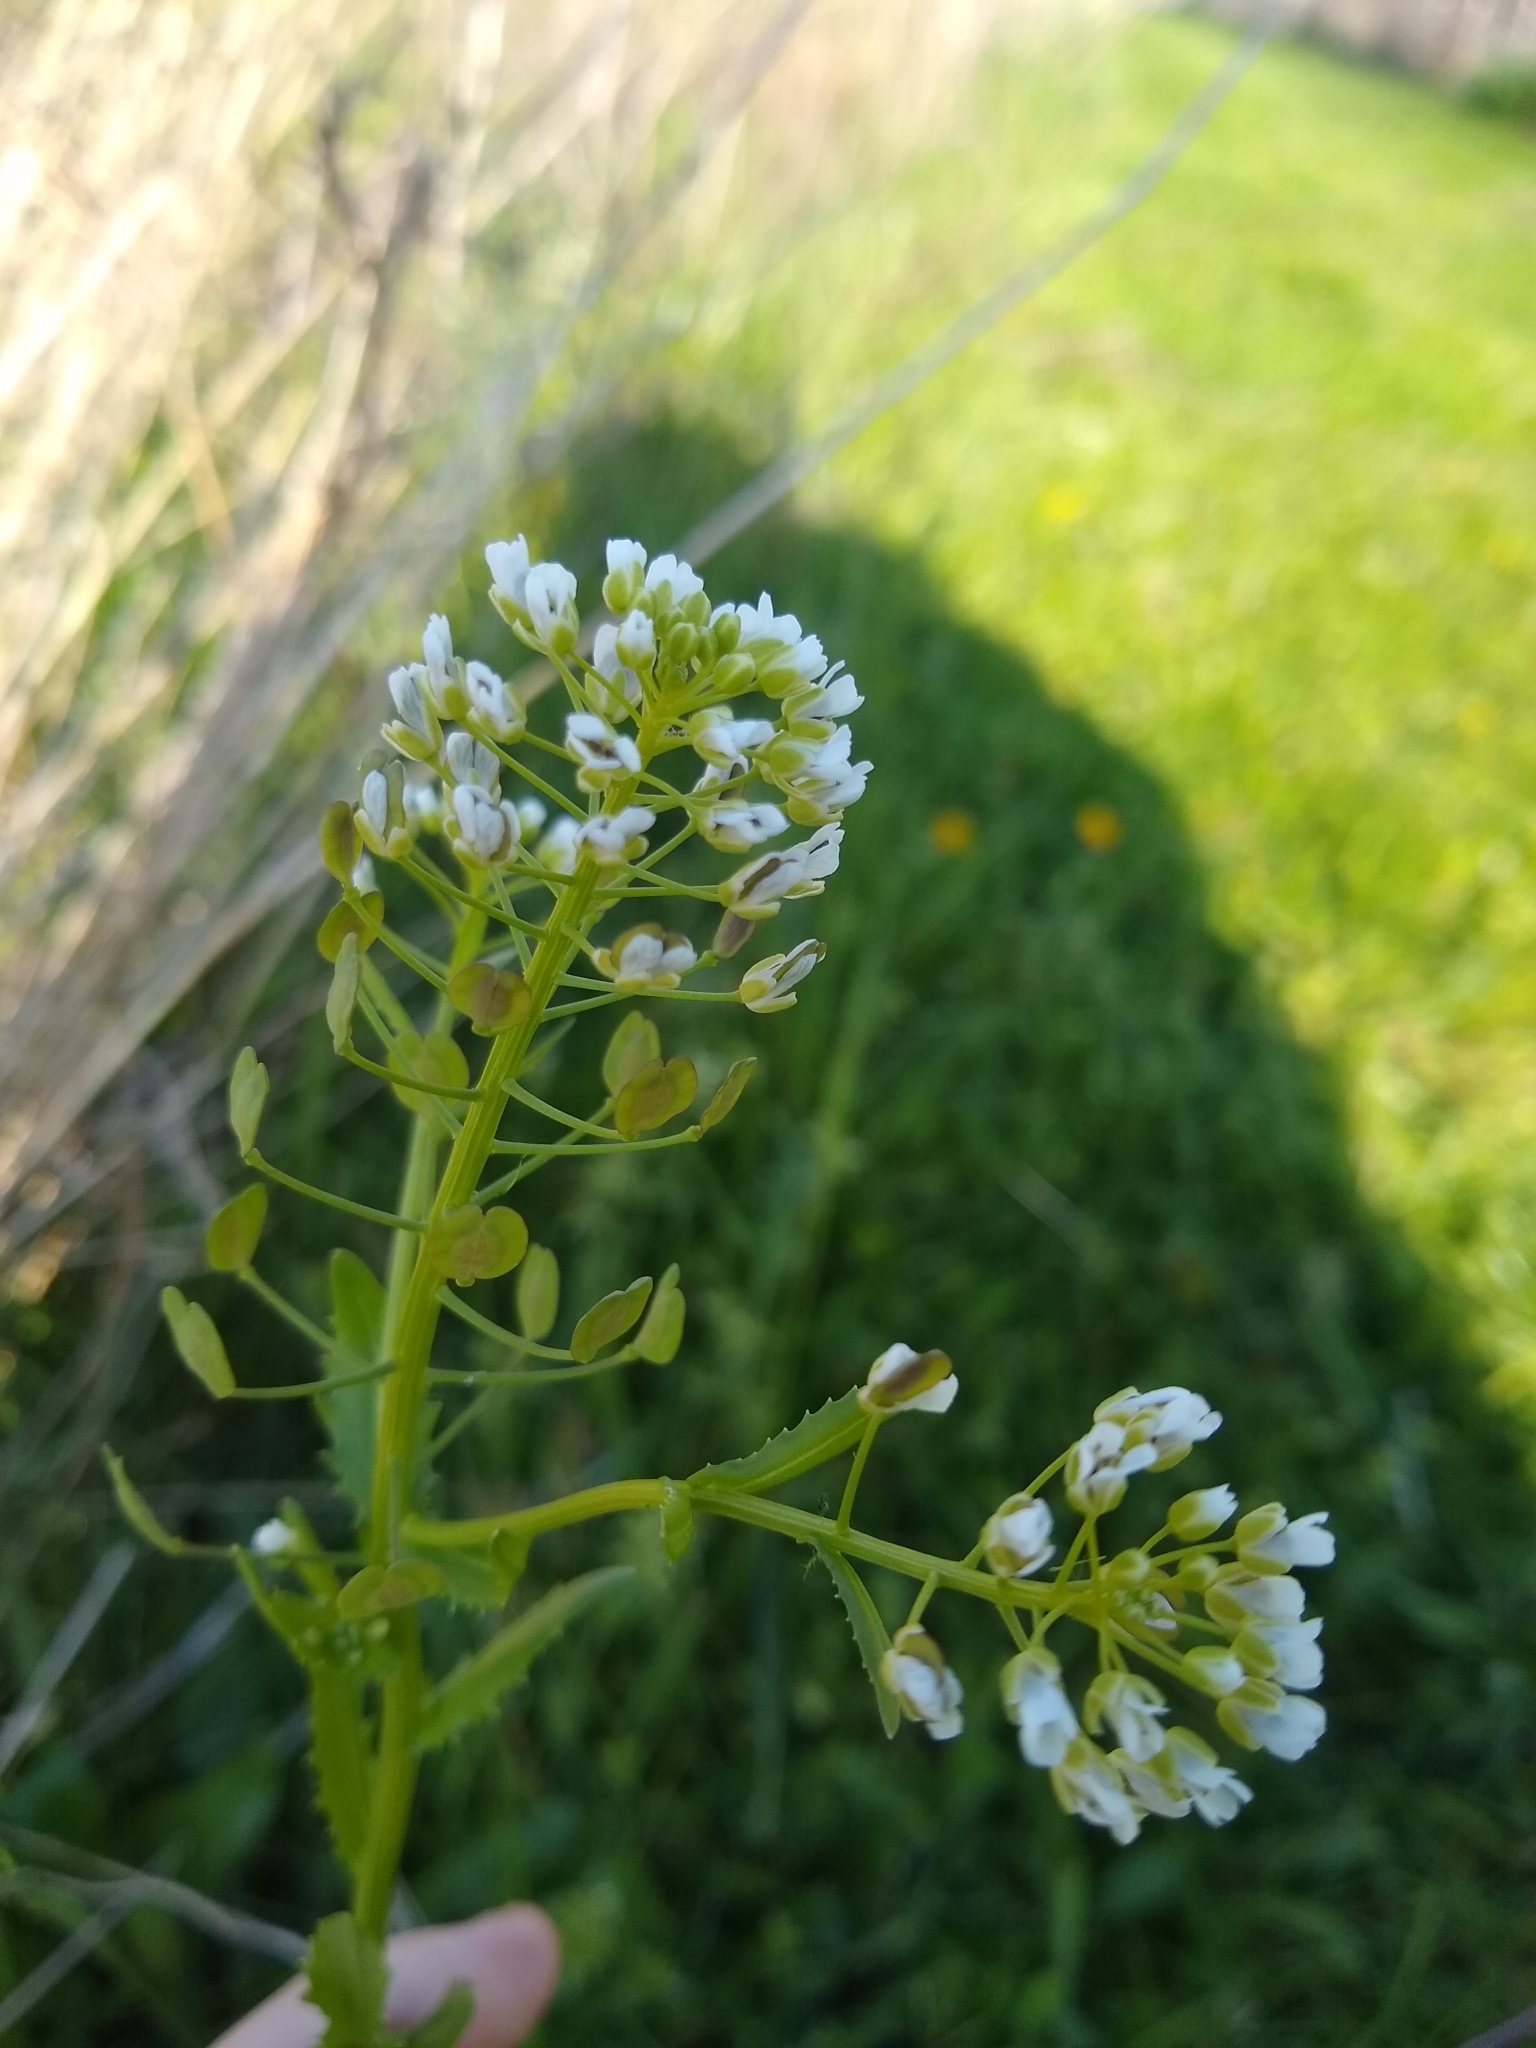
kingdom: Plantae
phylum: Tracheophyta
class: Magnoliopsida
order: Brassicales
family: Brassicaceae
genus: Thlaspi
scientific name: Thlaspi arvense
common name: Field pennycress
